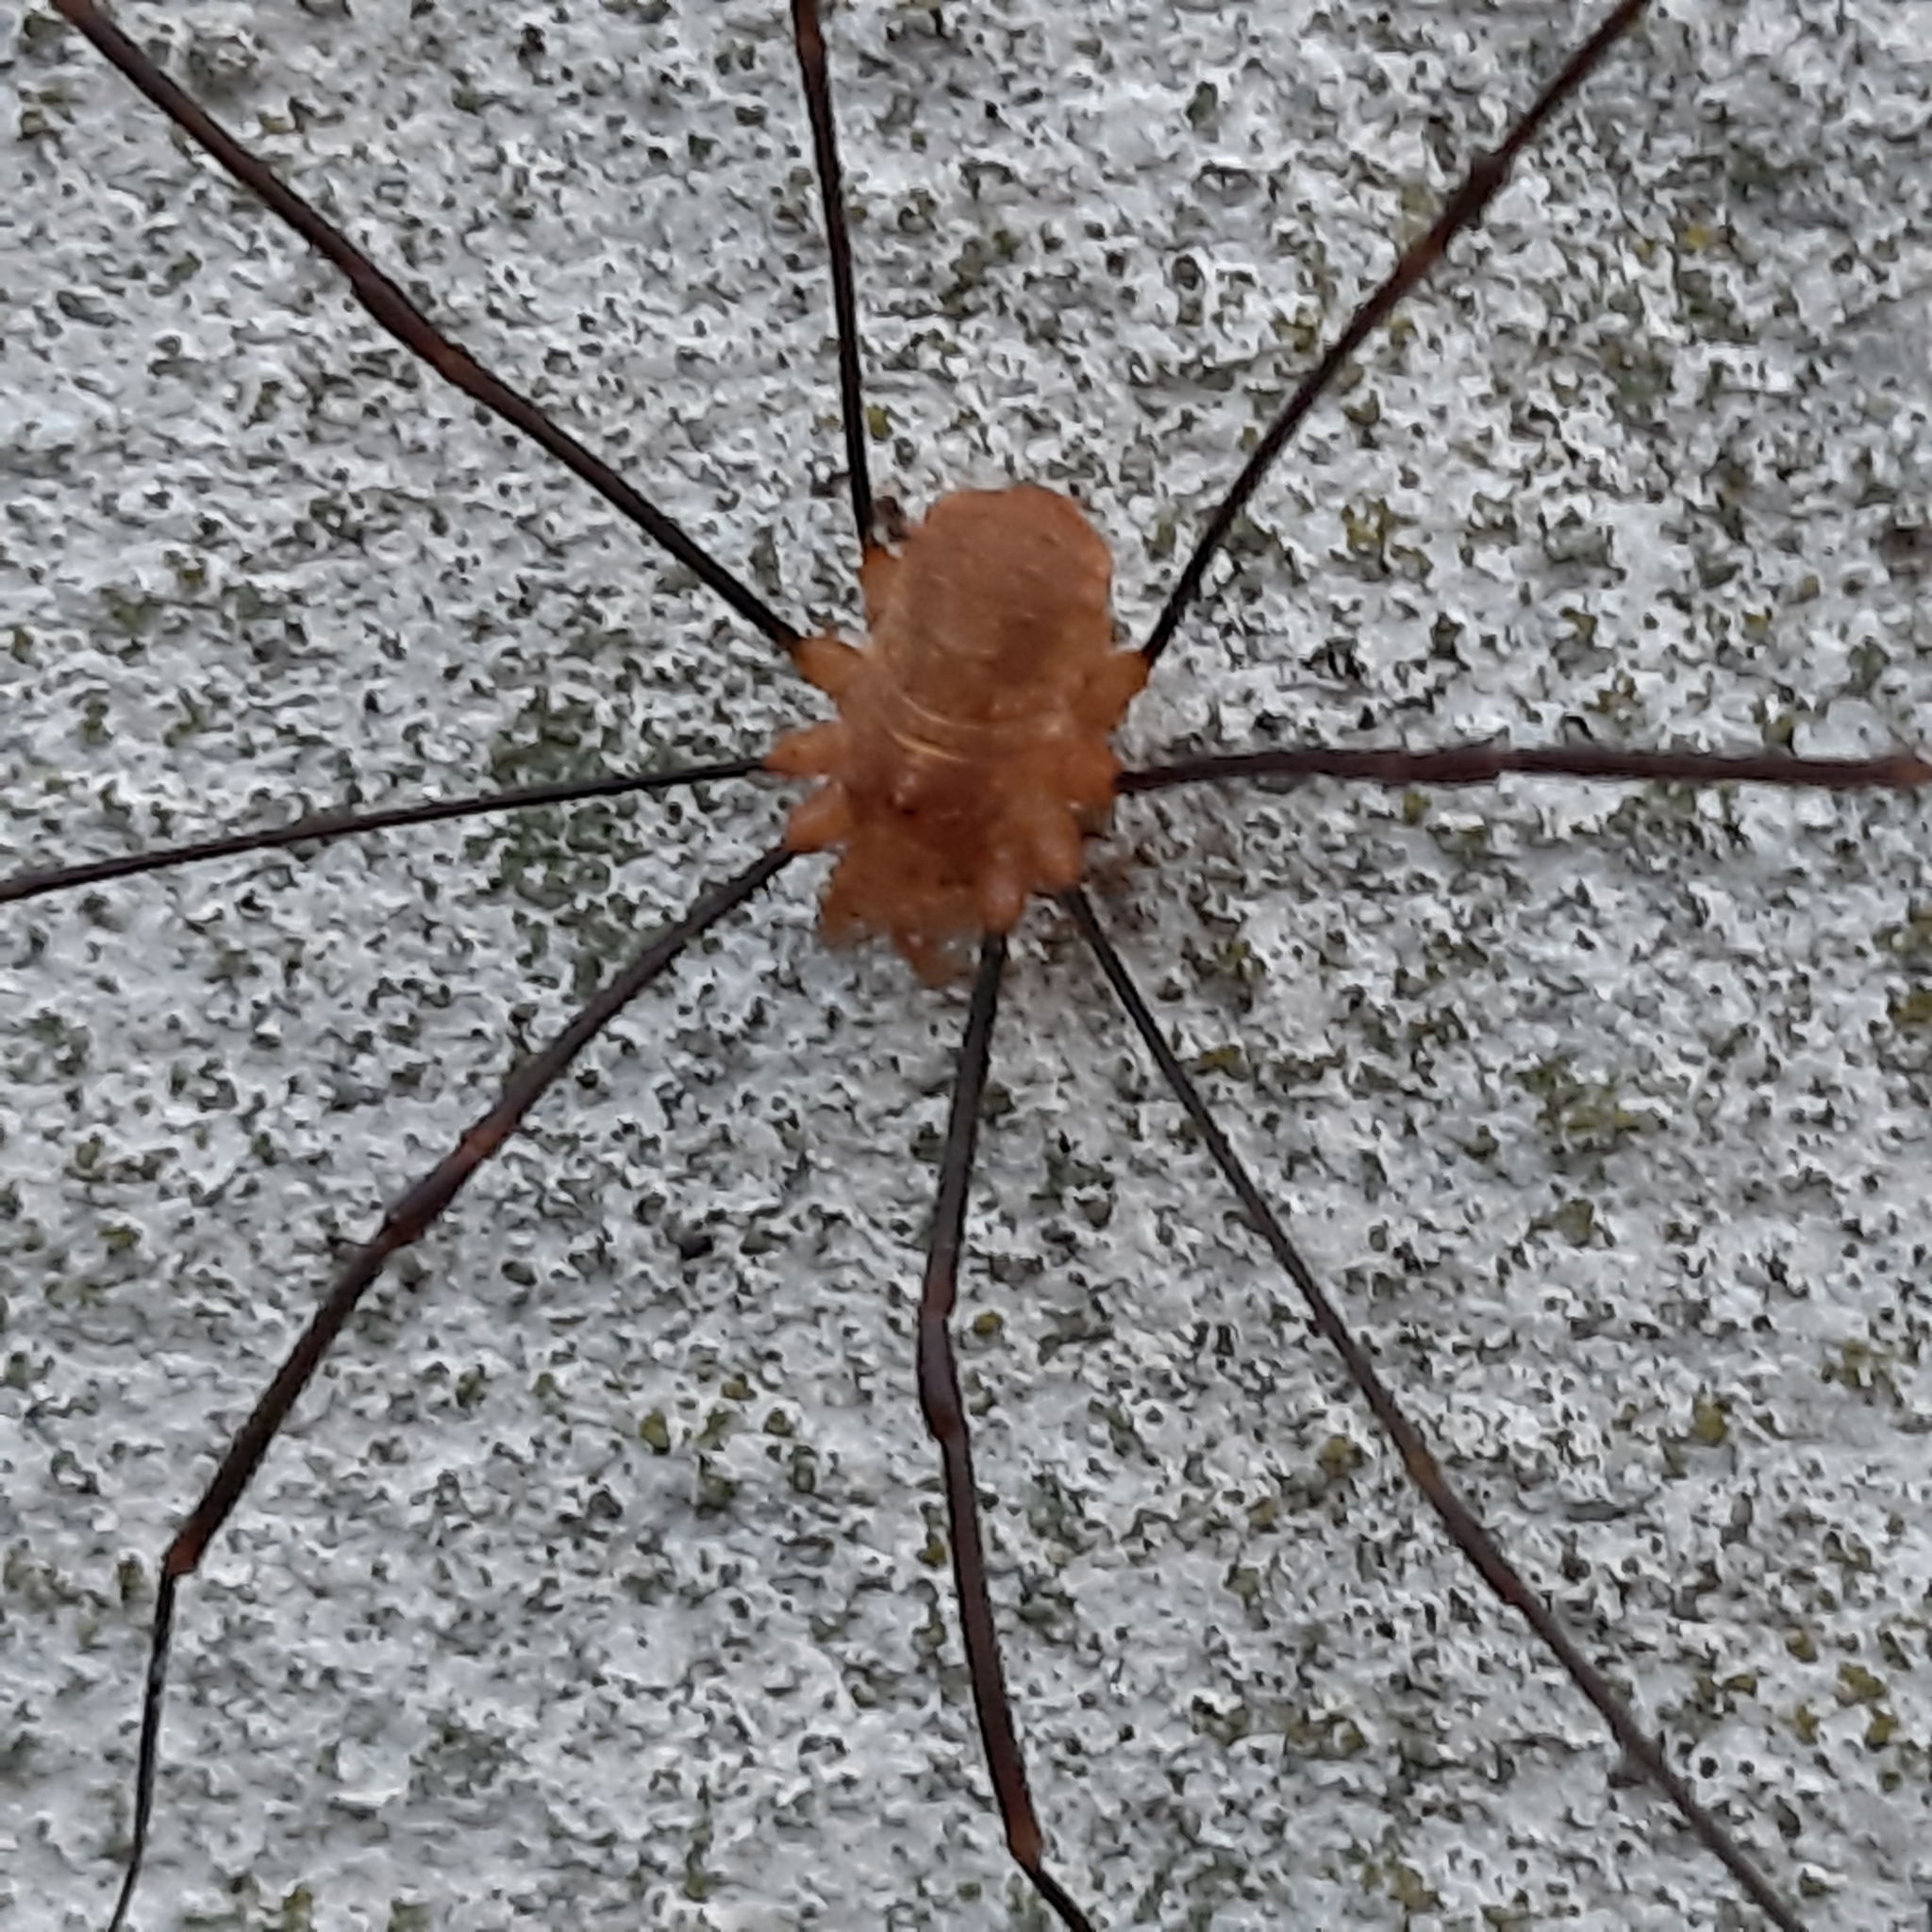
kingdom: Animalia
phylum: Arthropoda
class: Arachnida
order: Opiliones
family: Phalangiidae
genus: Opilio
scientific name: Opilio canestrinii
